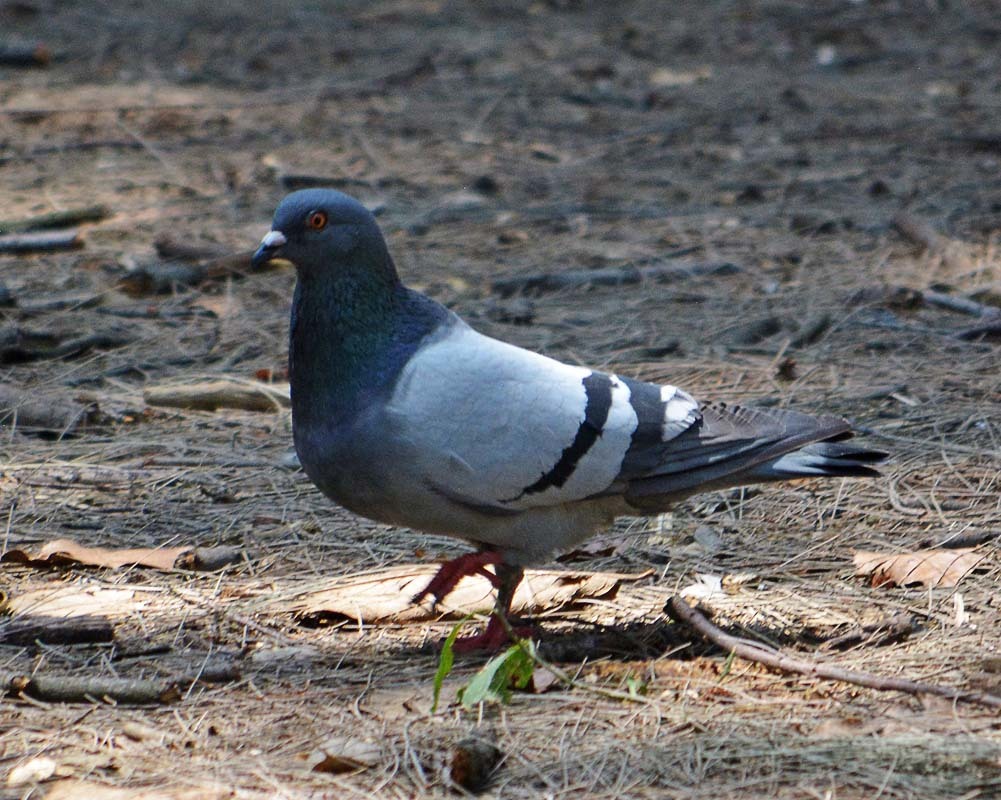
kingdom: Animalia
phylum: Chordata
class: Aves
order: Columbiformes
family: Columbidae
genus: Columba
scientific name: Columba livia
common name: Rock pigeon
